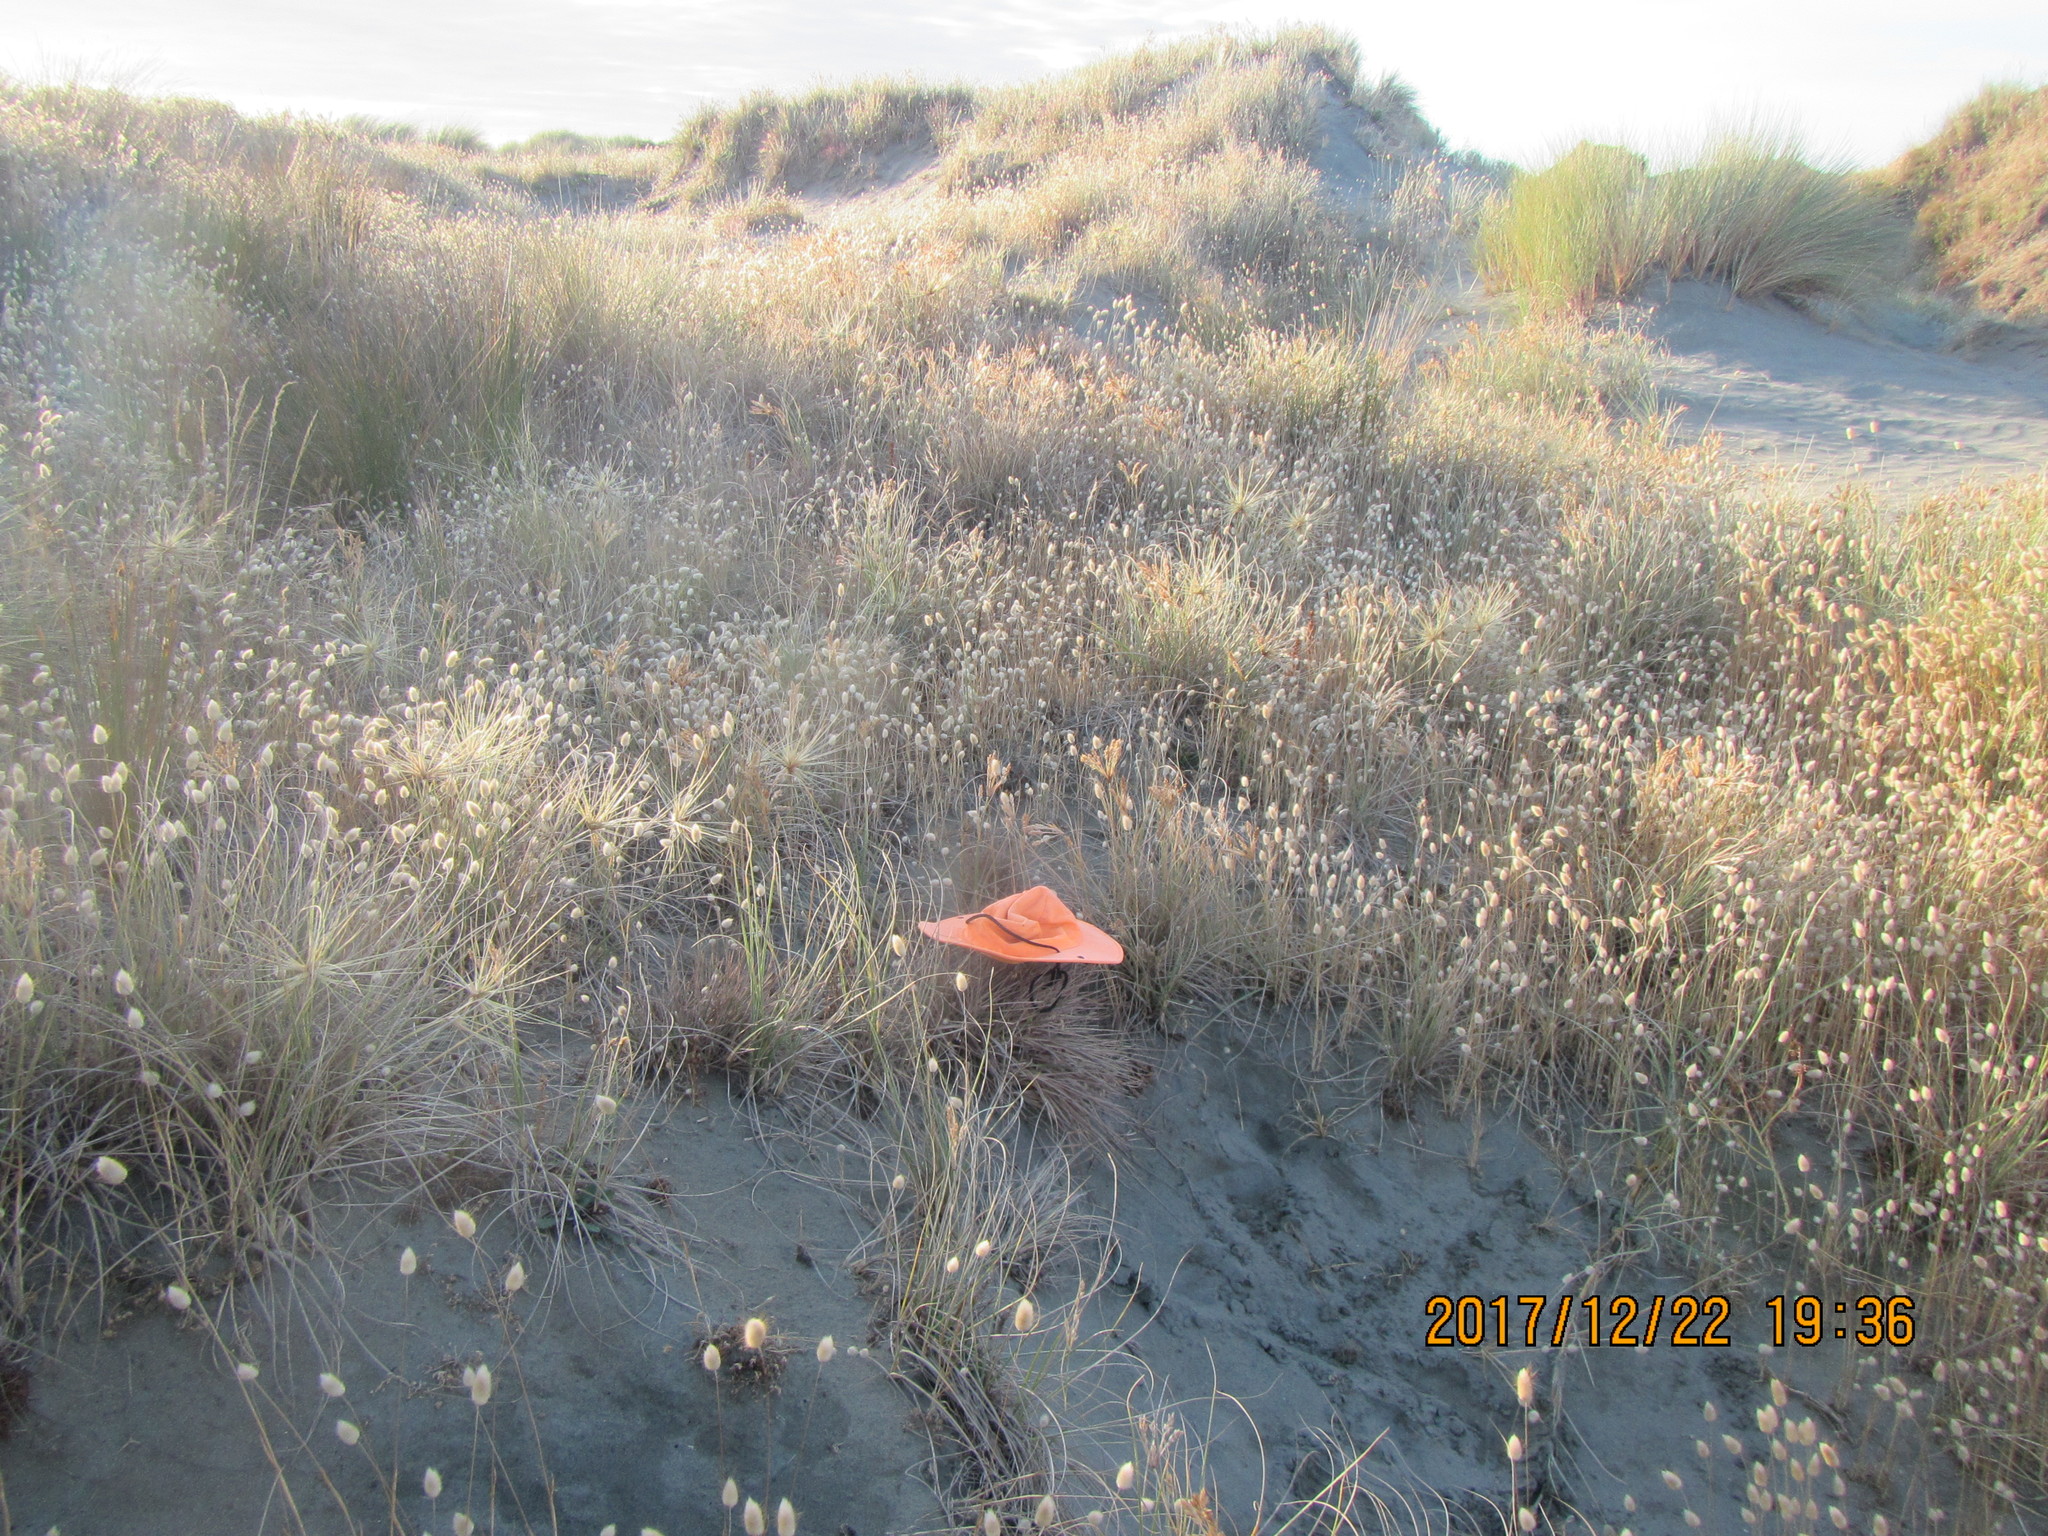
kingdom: Animalia
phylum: Arthropoda
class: Insecta
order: Hymenoptera
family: Sphecidae
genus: Podalonia
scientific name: Podalonia tydei
